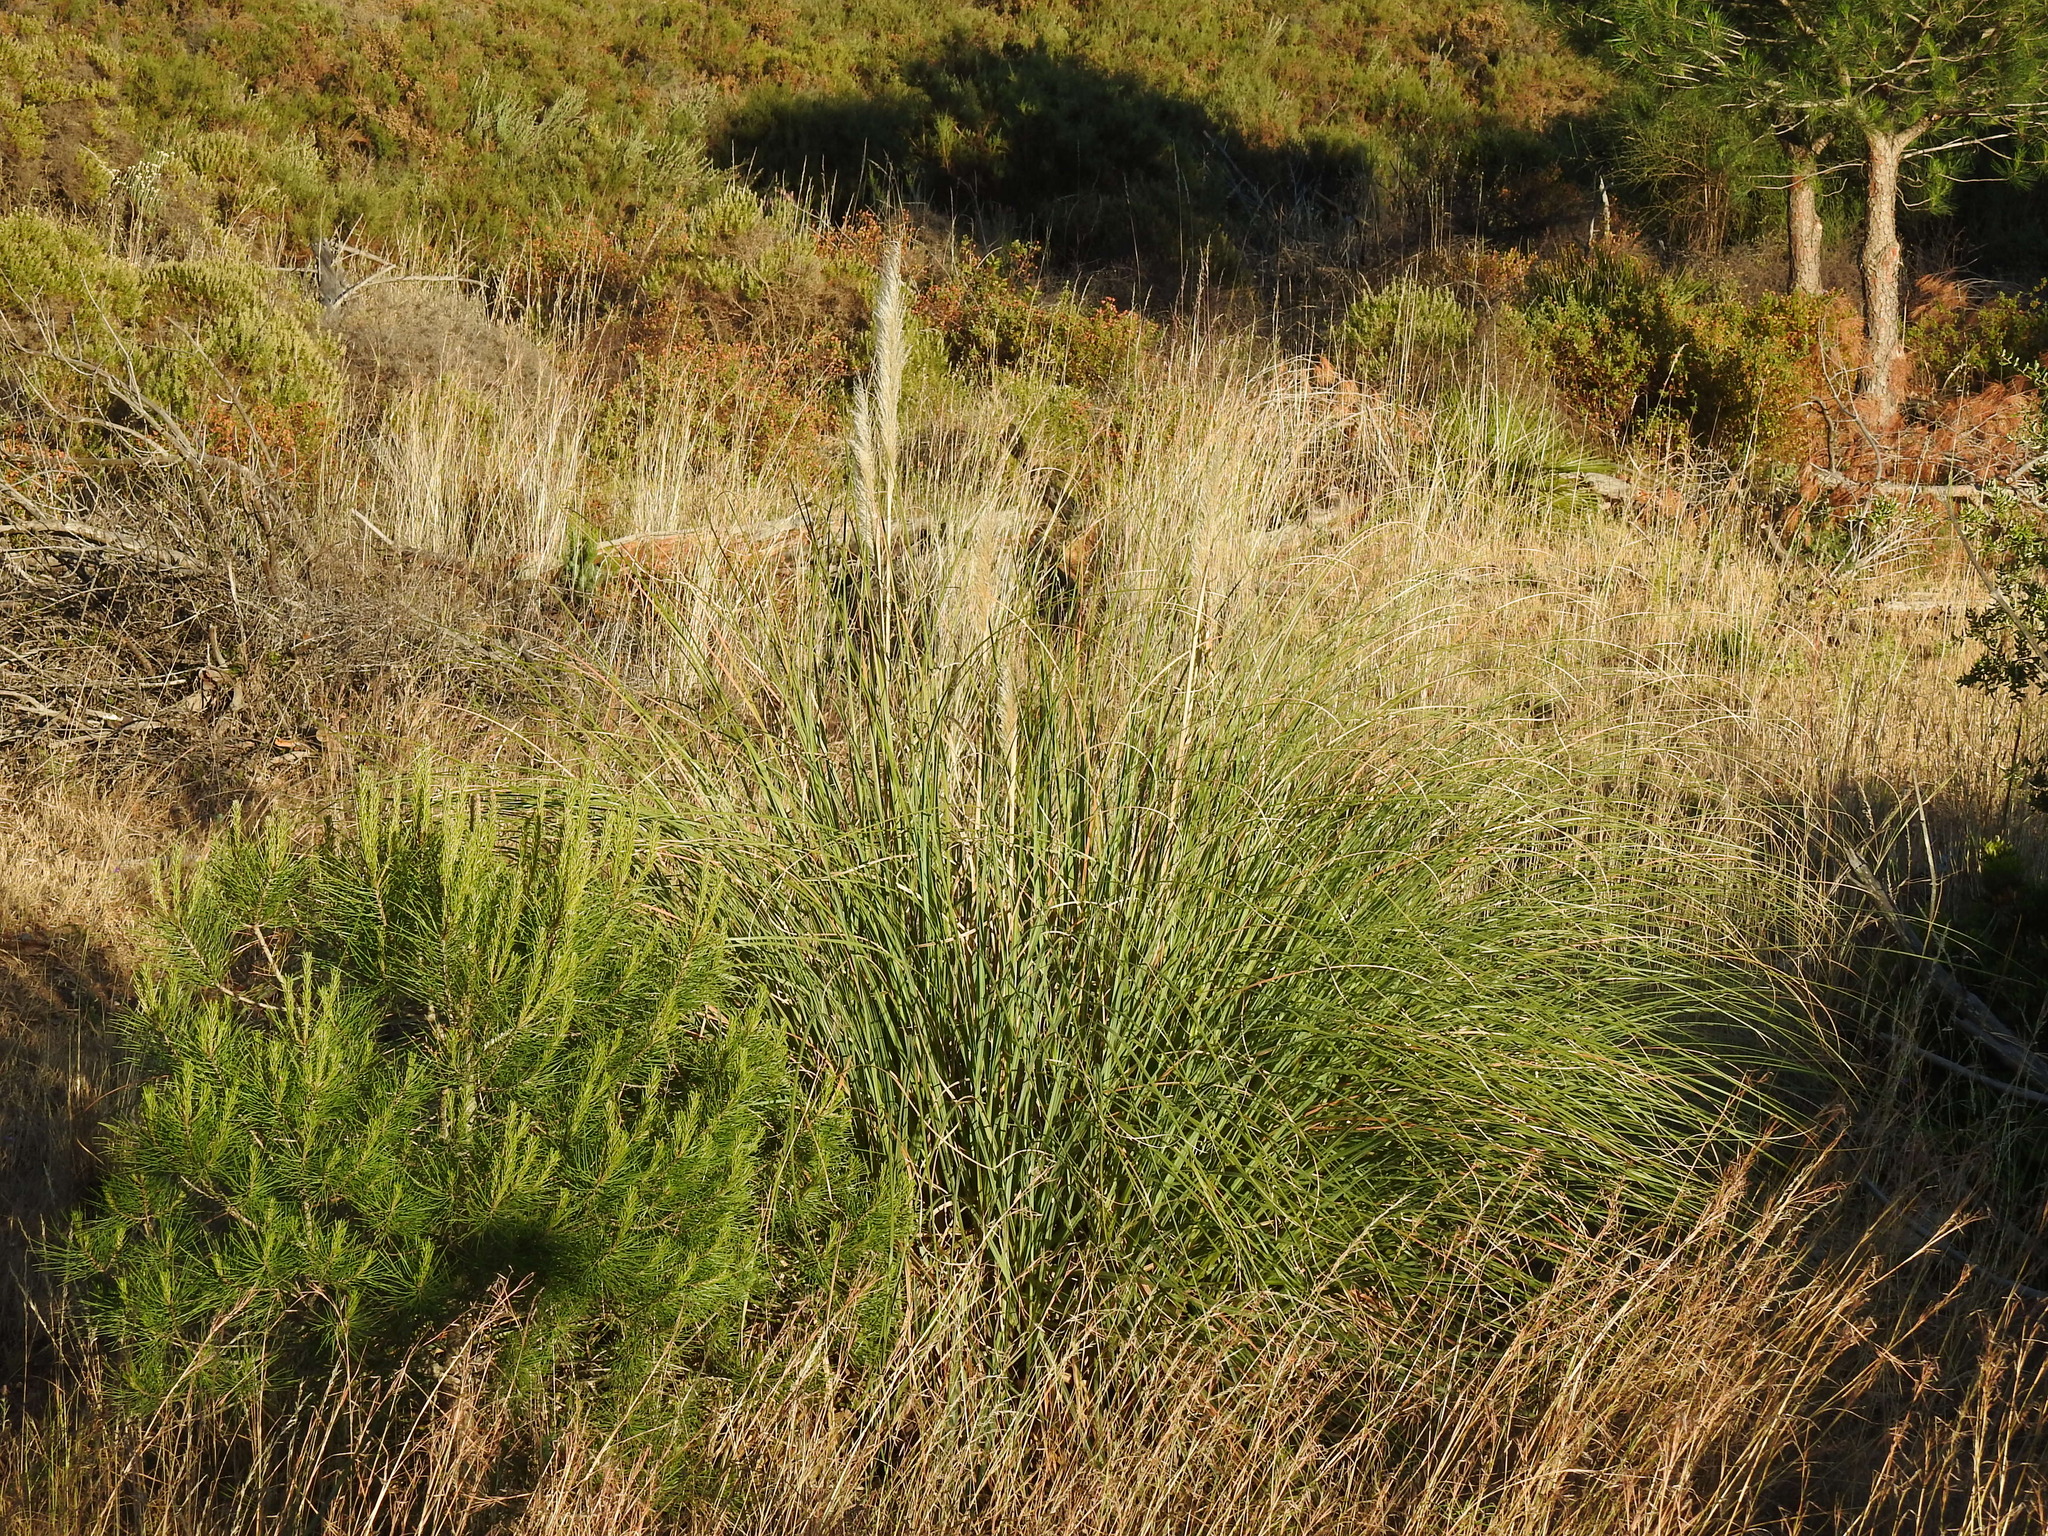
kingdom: Plantae
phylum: Tracheophyta
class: Liliopsida
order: Poales
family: Poaceae
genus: Cortaderia
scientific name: Cortaderia selloana
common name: Uruguayan pampas grass
